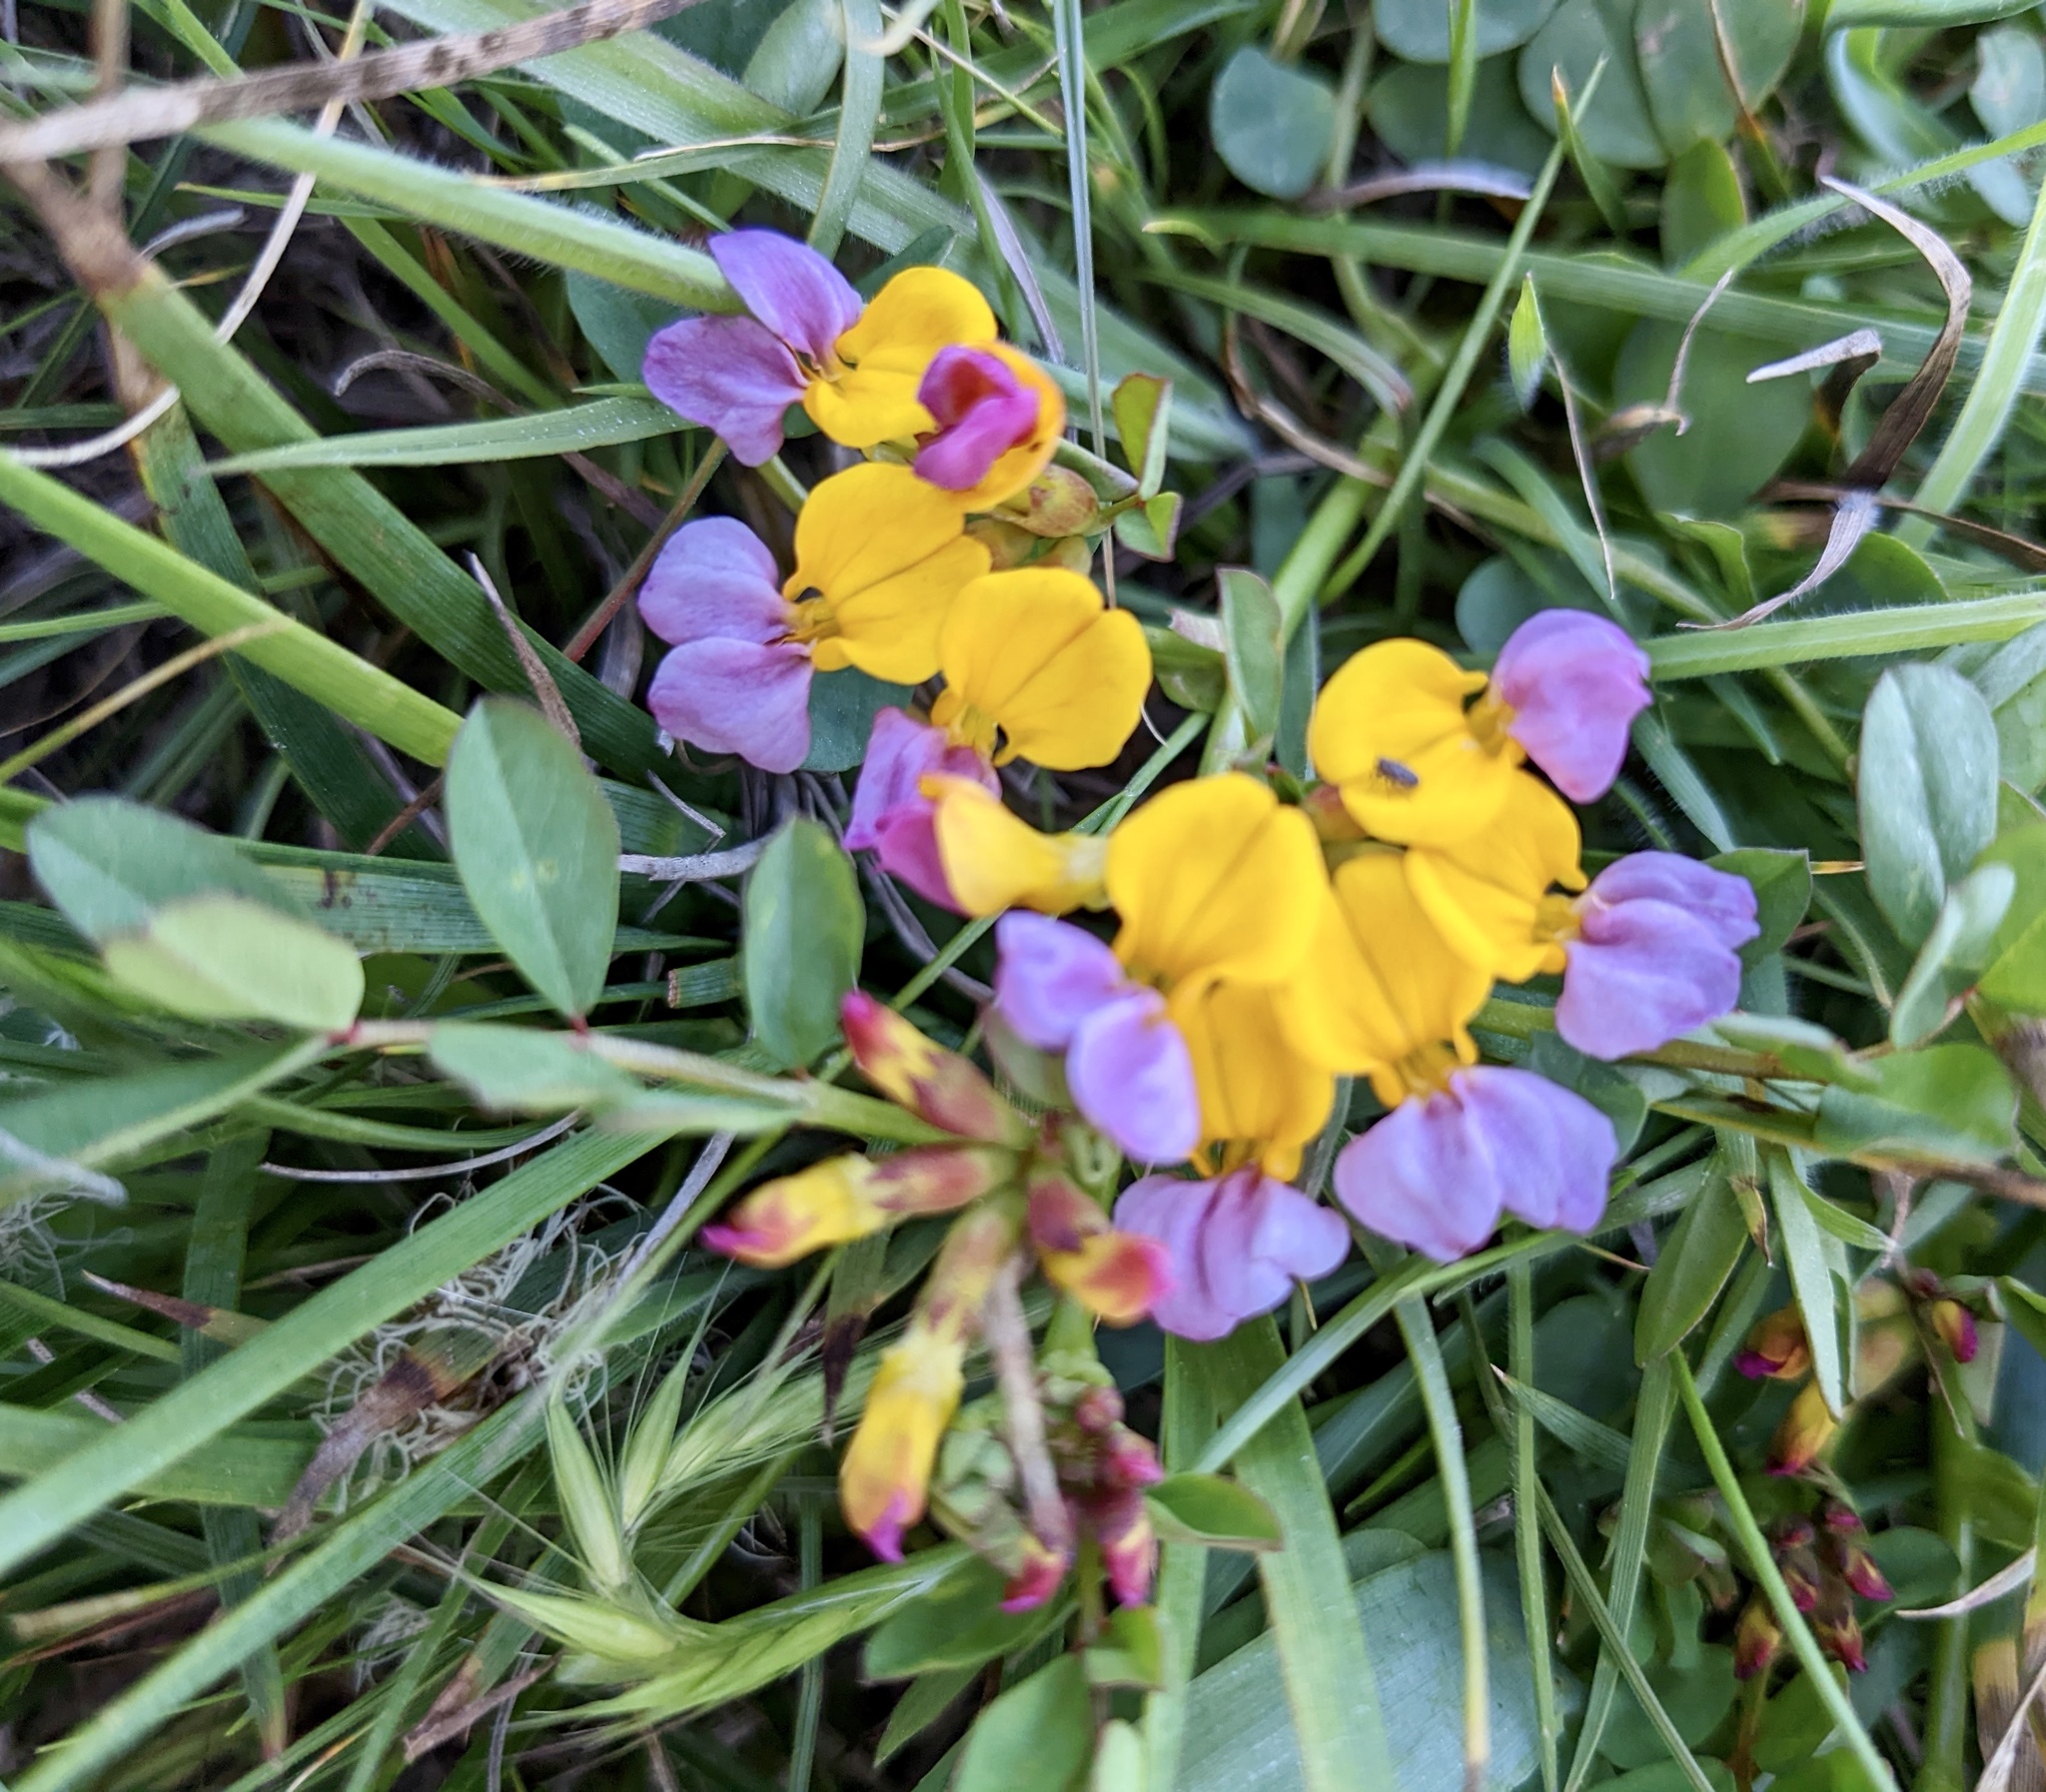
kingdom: Plantae
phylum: Tracheophyta
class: Magnoliopsida
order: Fabales
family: Fabaceae
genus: Hosackia
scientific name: Hosackia gracilis
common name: Seaside bird's-foot lotus
